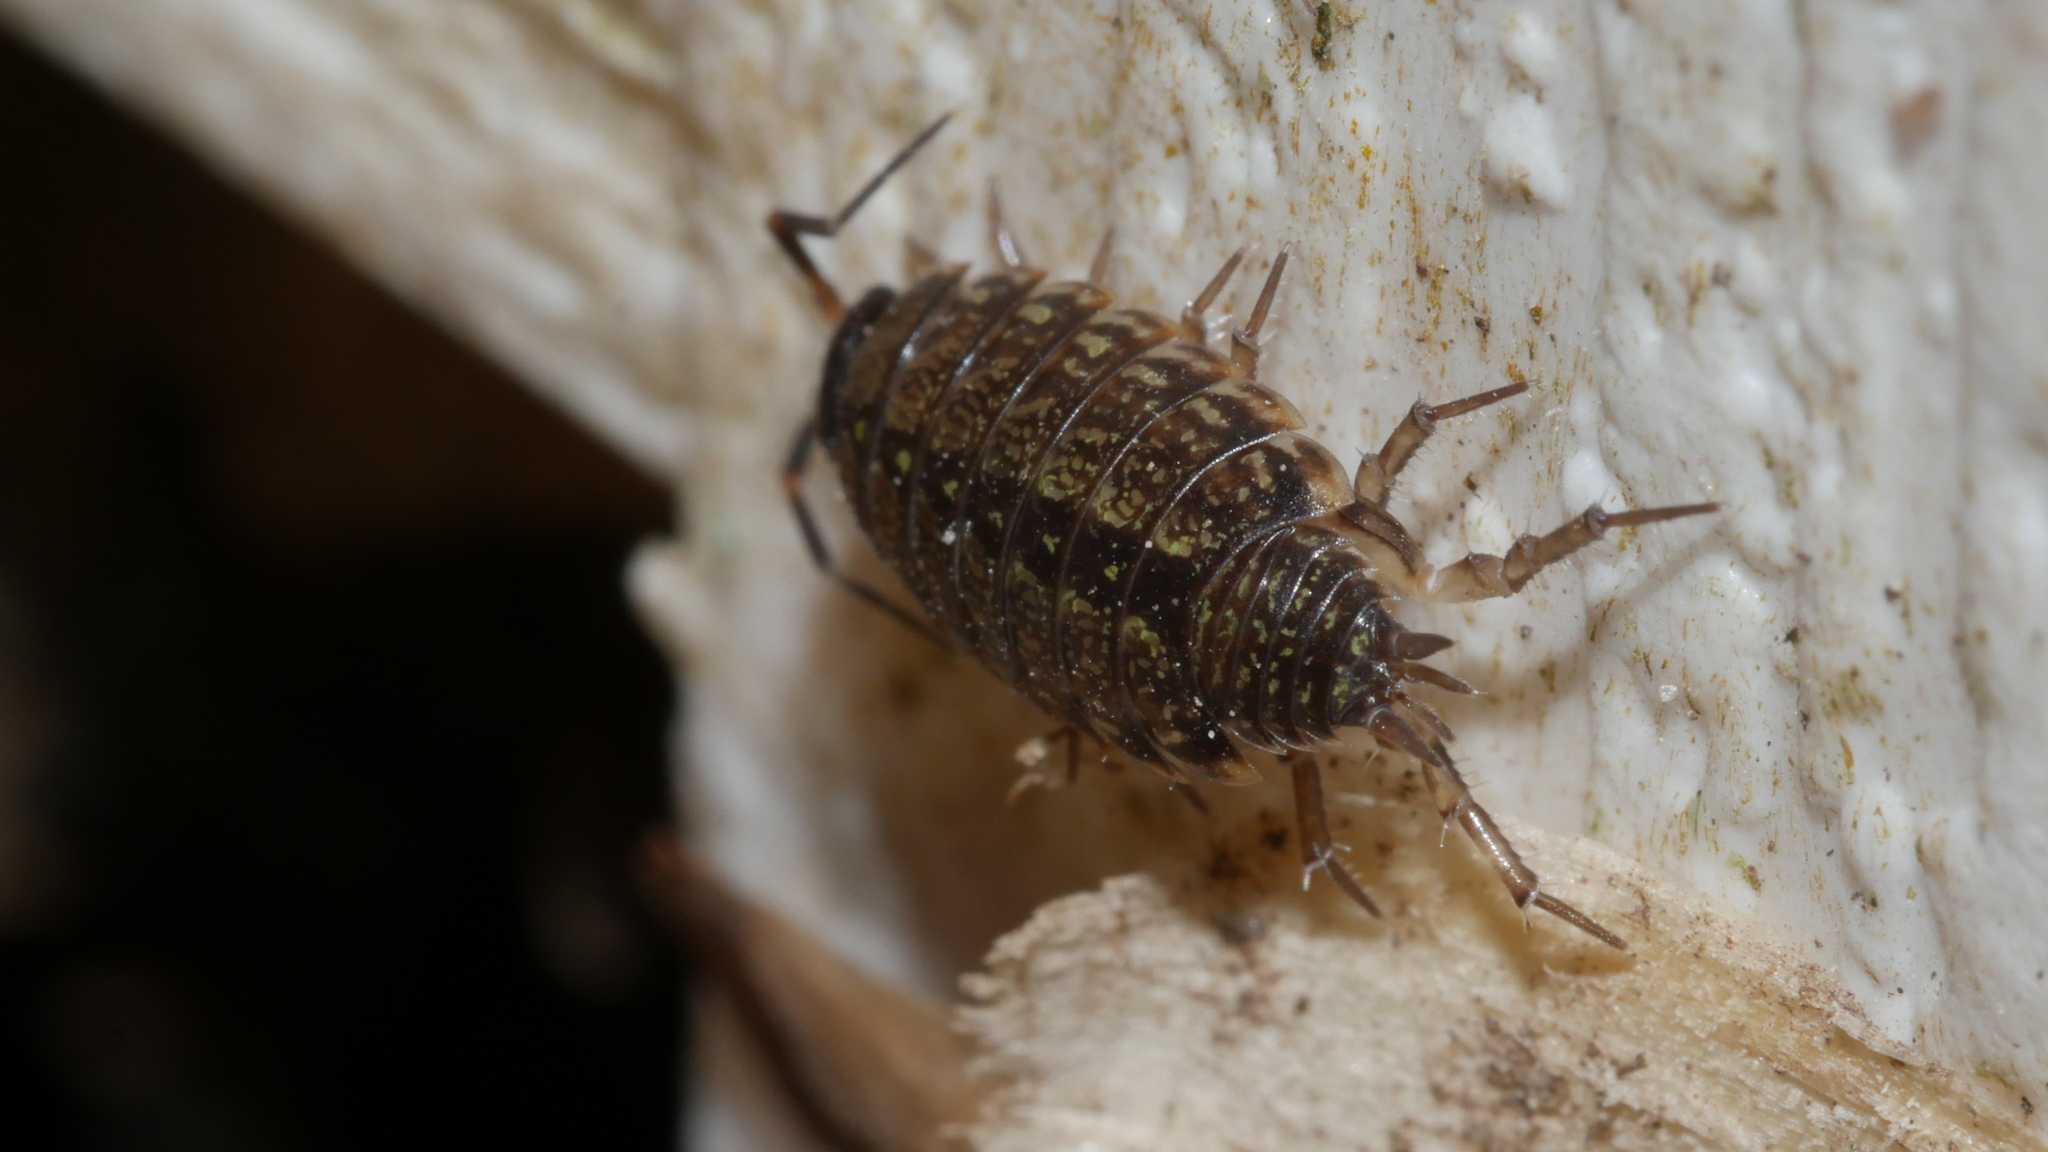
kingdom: Animalia
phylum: Arthropoda
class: Malacostraca
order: Isopoda
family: Philosciidae
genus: Philoscia
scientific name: Philoscia muscorum
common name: Common striped woodlouse
